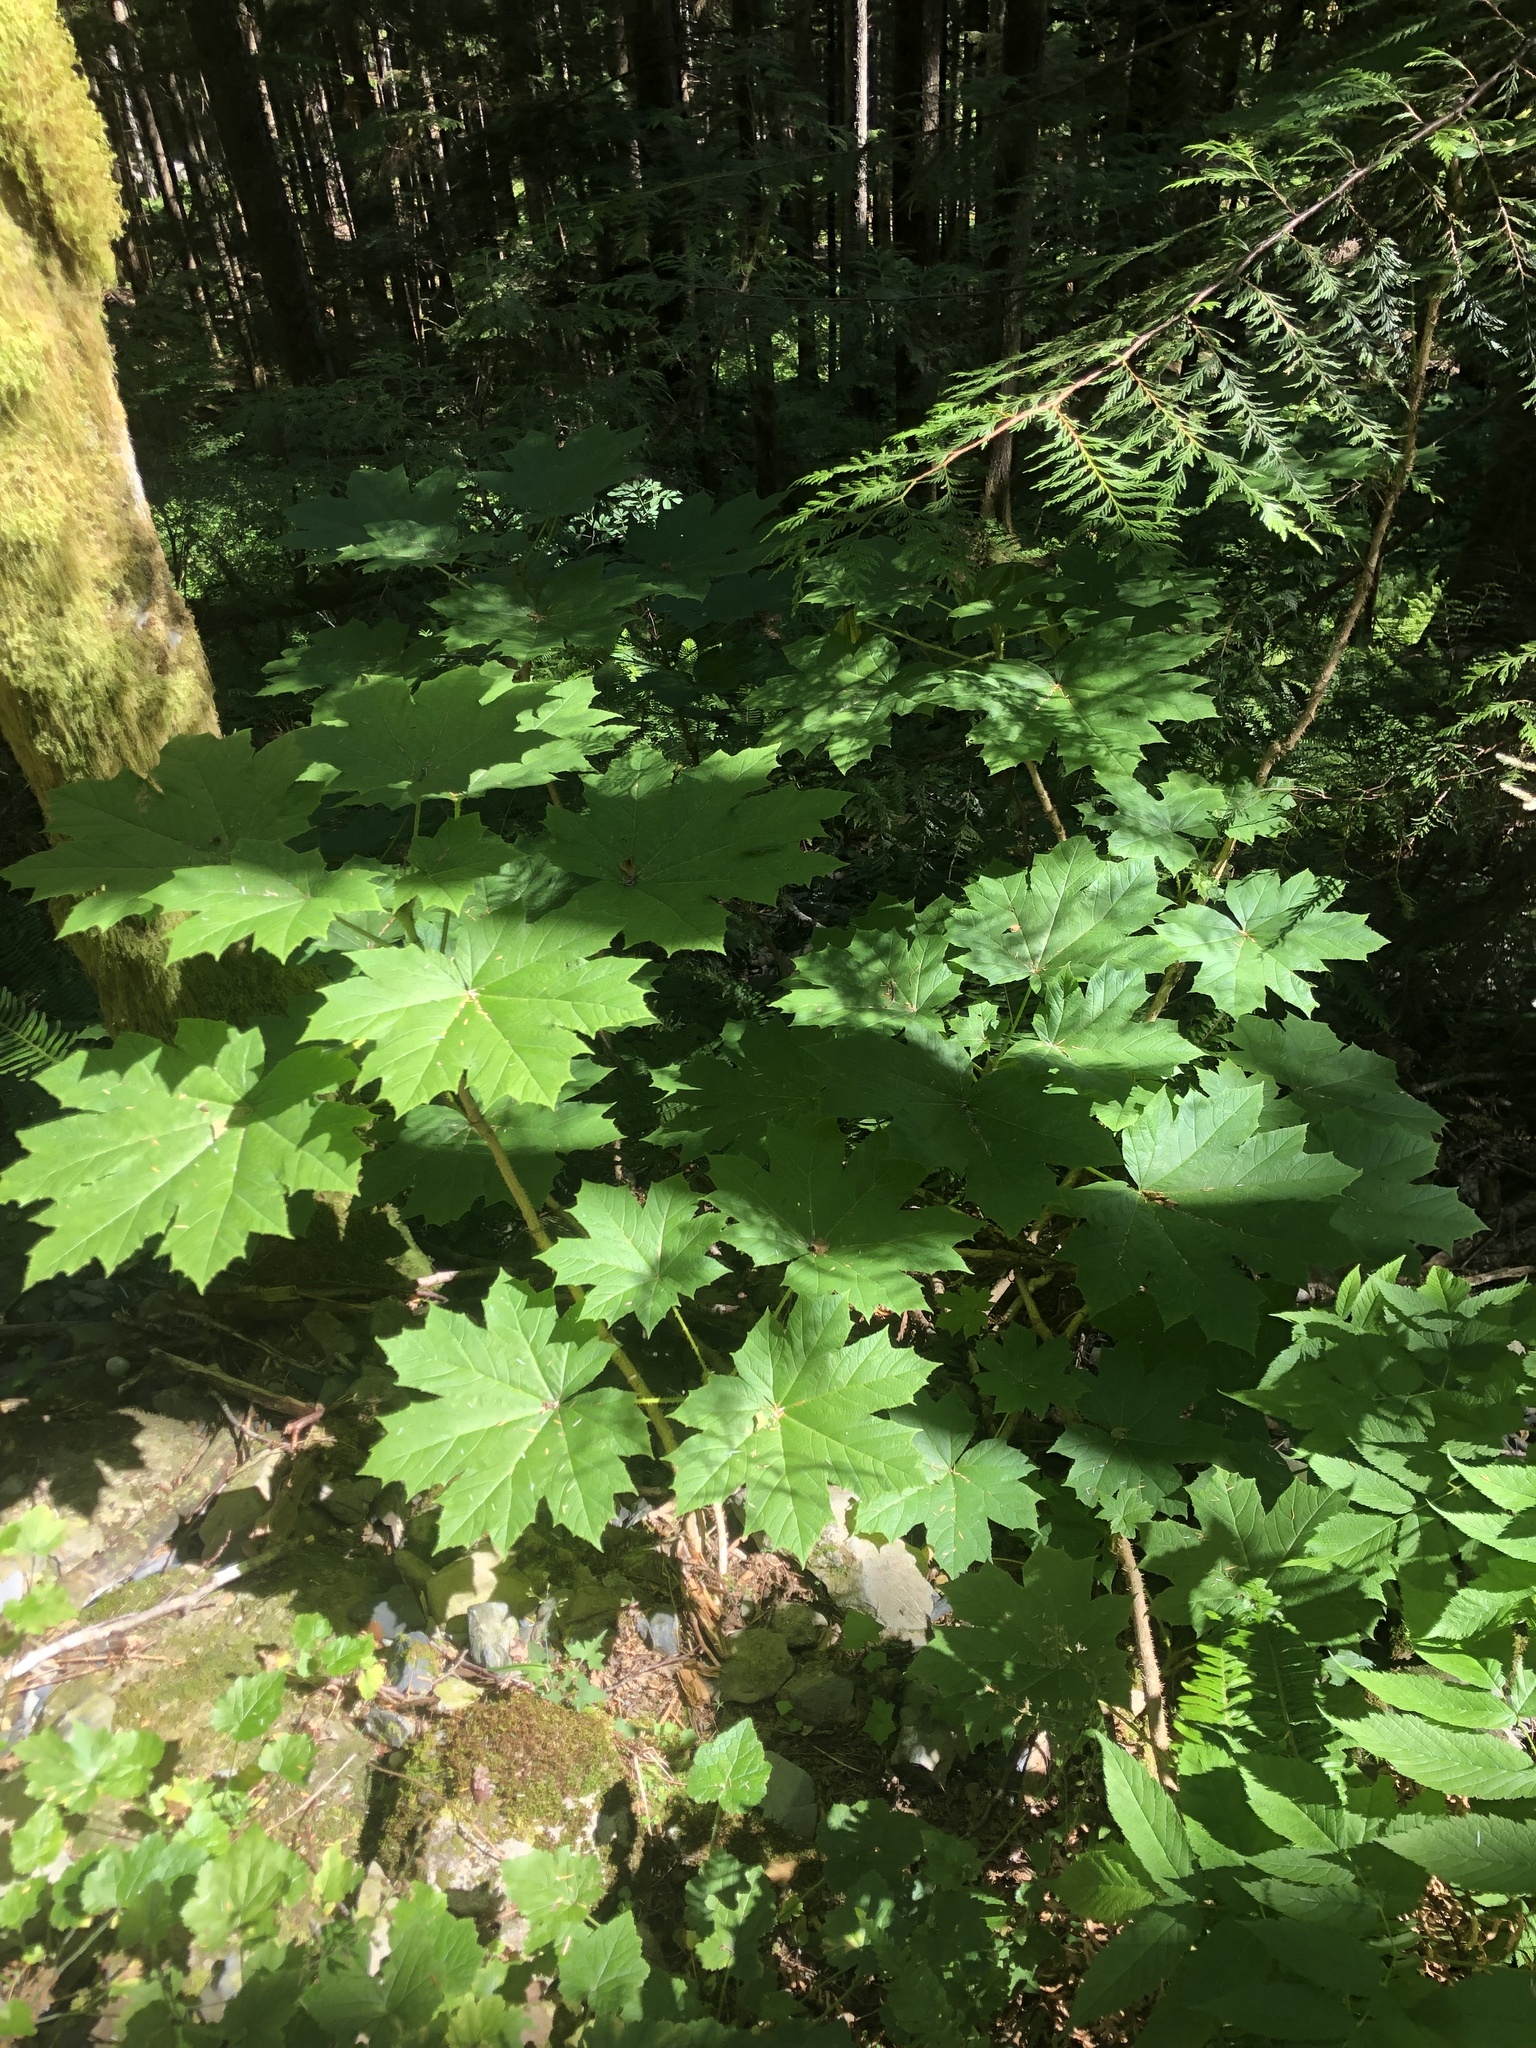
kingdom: Plantae
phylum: Tracheophyta
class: Magnoliopsida
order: Apiales
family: Araliaceae
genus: Oplopanax
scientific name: Oplopanax horridus
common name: Devil's walking-stick
